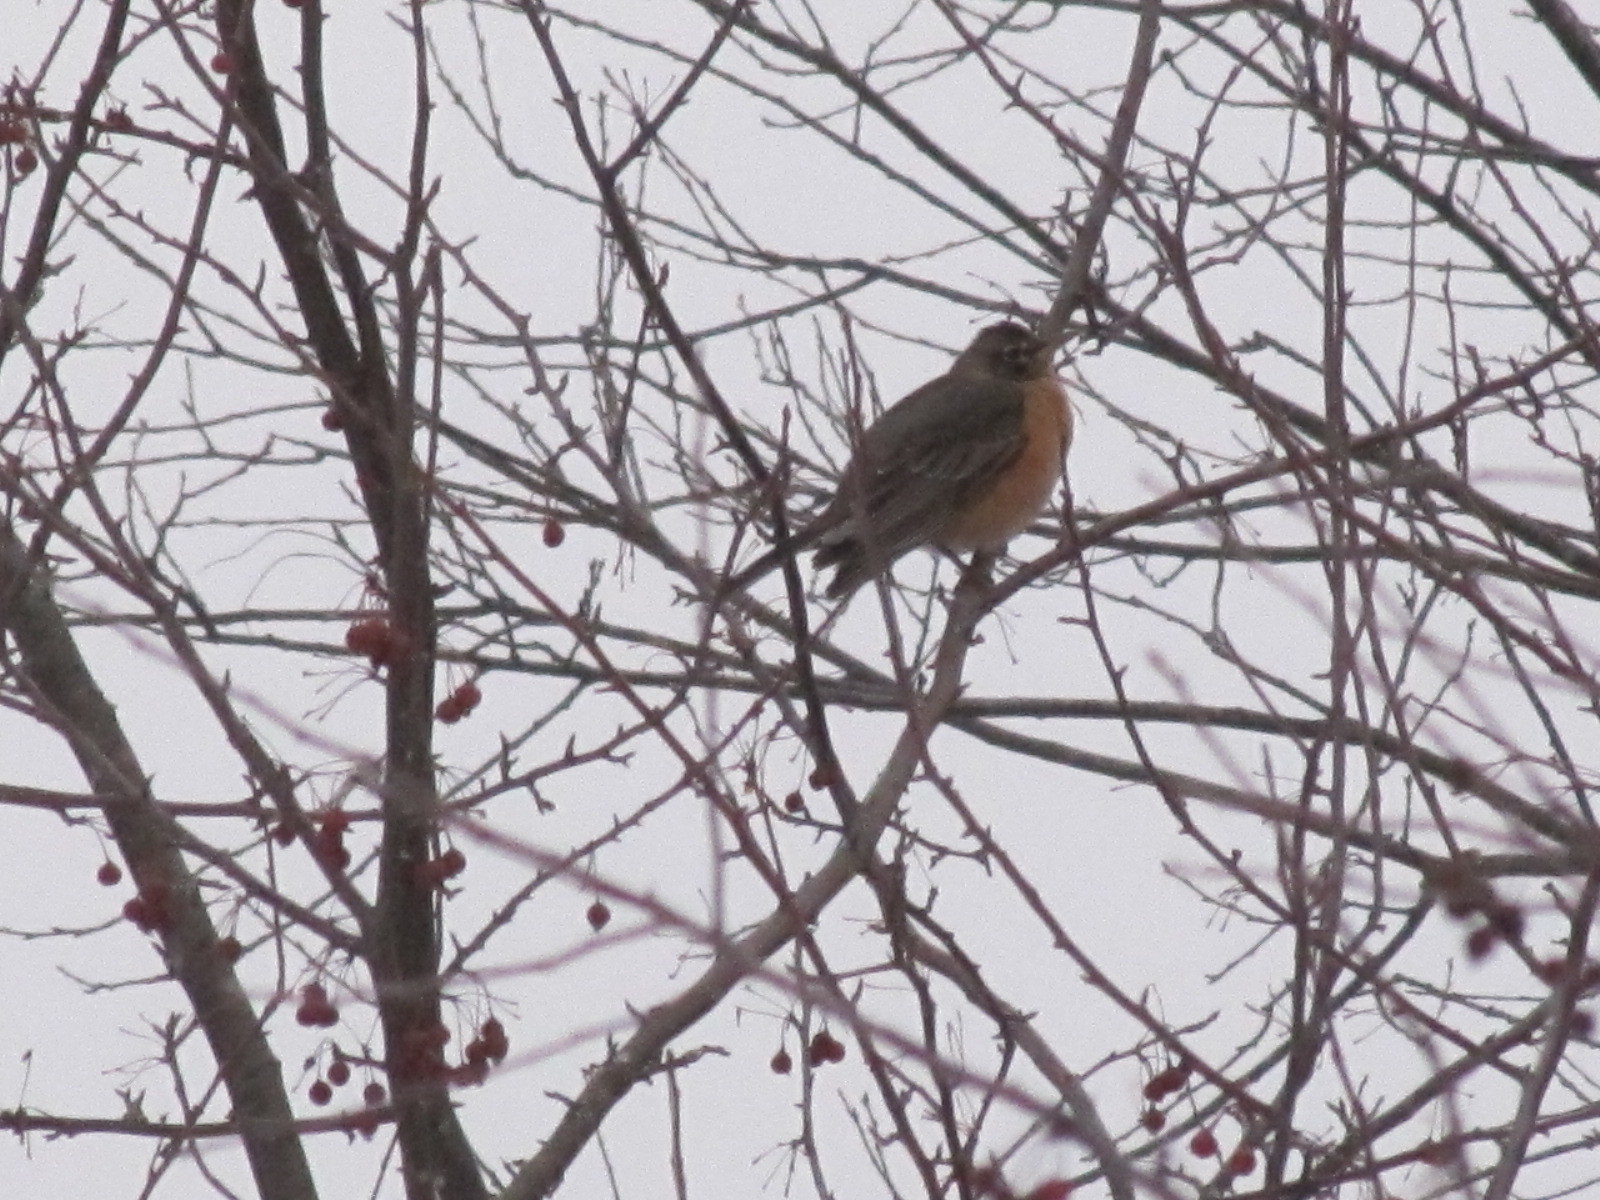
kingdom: Animalia
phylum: Chordata
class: Aves
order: Passeriformes
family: Turdidae
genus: Turdus
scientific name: Turdus migratorius
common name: American robin
